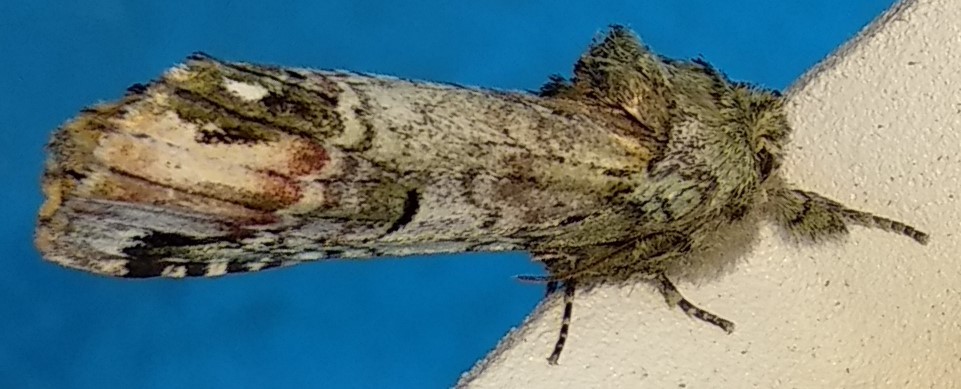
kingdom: Animalia
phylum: Arthropoda
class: Insecta
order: Lepidoptera
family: Notodontidae
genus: Schizura
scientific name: Schizura
